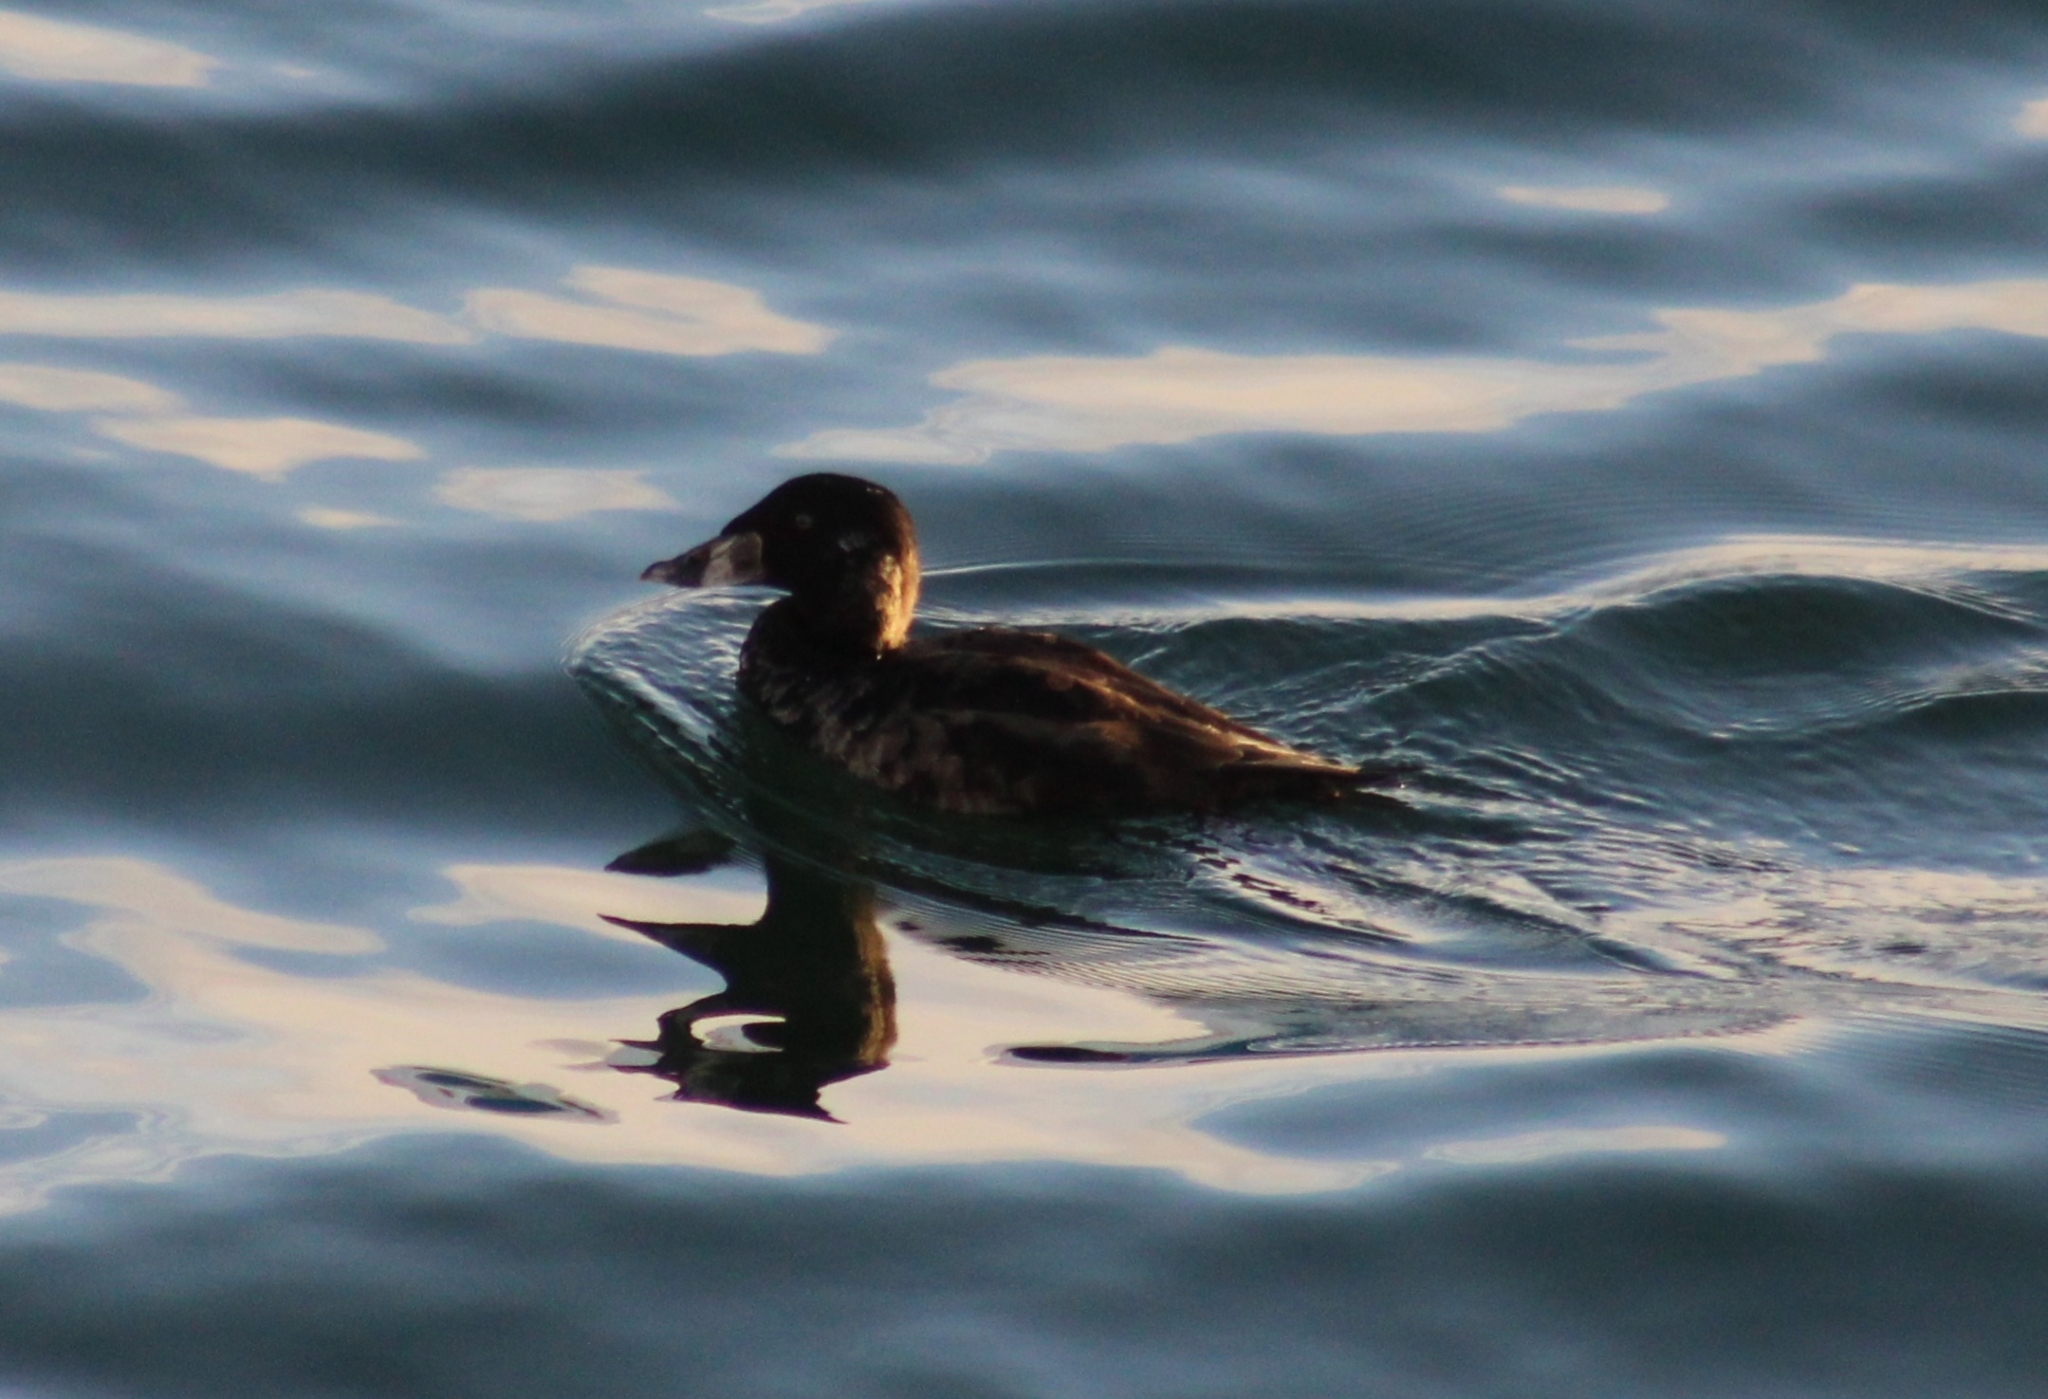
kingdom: Animalia
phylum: Chordata
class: Aves
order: Anseriformes
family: Anatidae
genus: Melanitta
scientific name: Melanitta perspicillata
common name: Surf scoter
